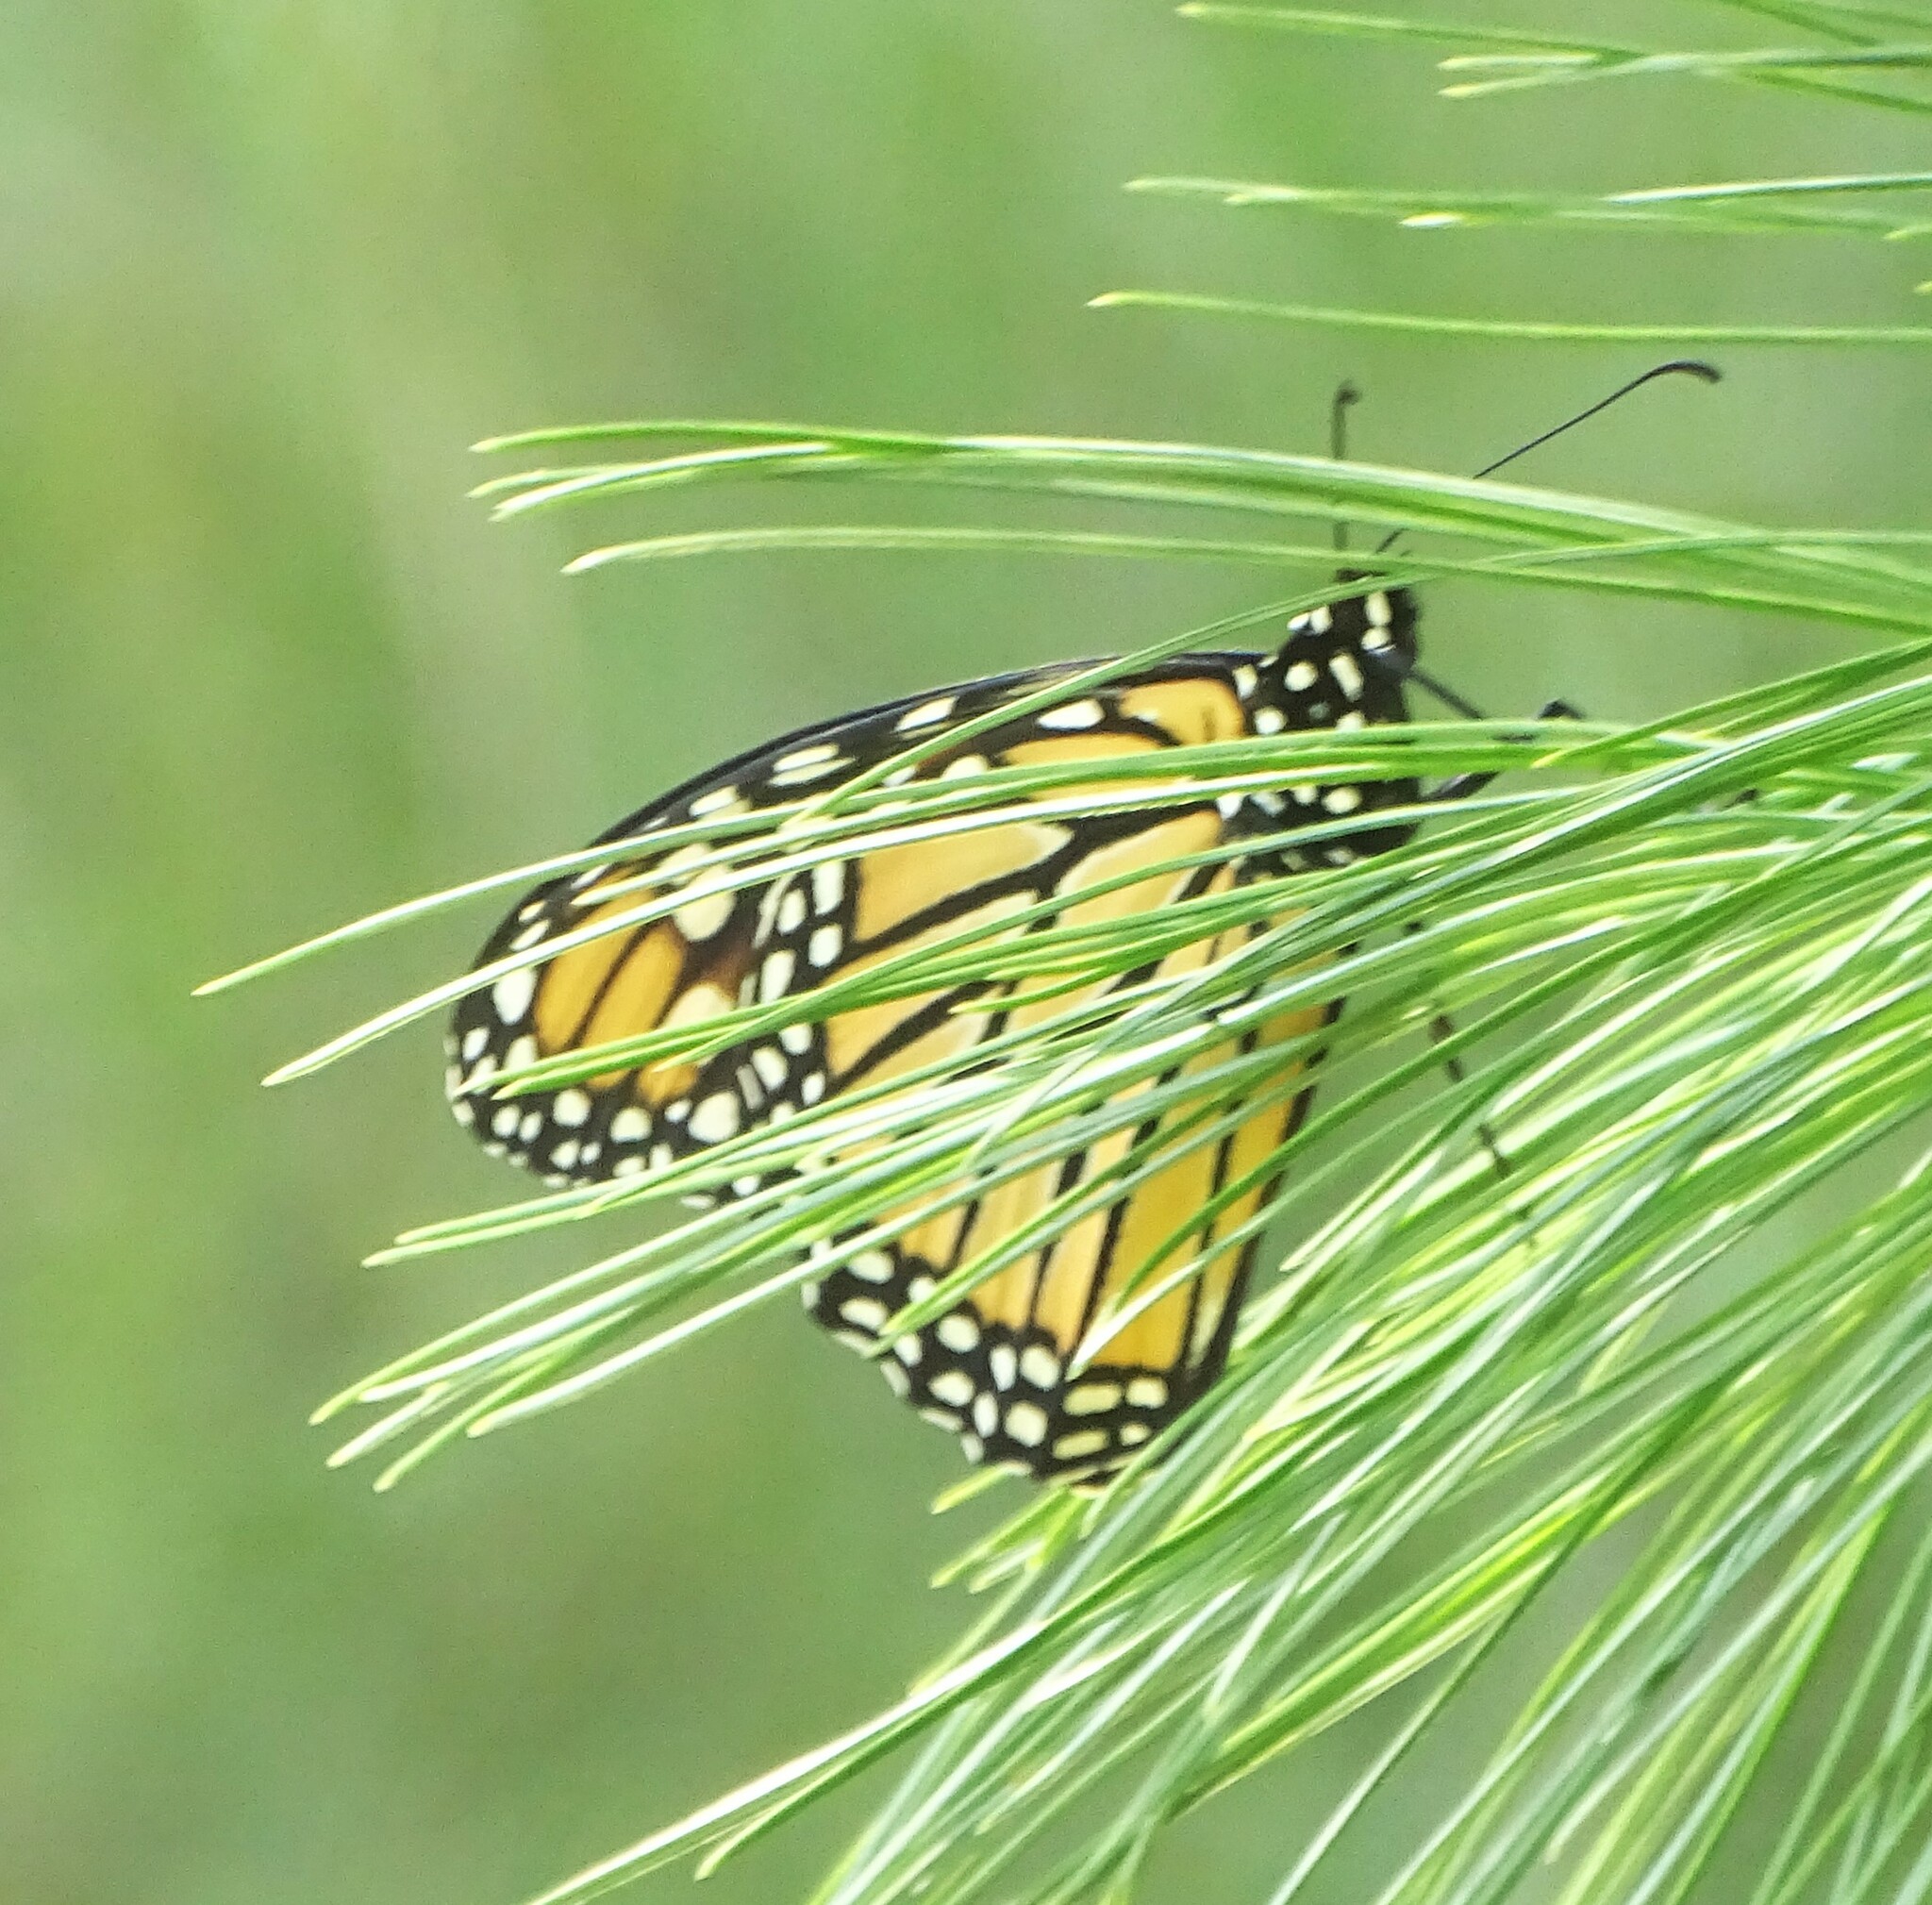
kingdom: Animalia
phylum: Arthropoda
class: Insecta
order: Lepidoptera
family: Nymphalidae
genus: Danaus
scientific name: Danaus plexippus
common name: Monarch
